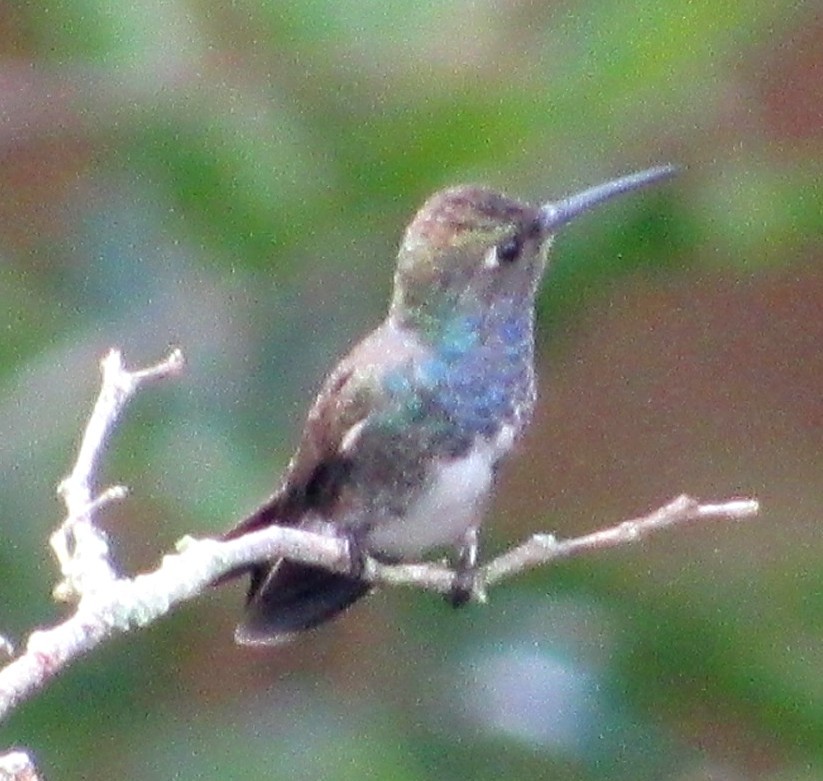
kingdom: Animalia
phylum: Chordata
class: Aves
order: Apodiformes
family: Trochilidae
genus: Chionomesa
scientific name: Chionomesa lactea
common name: Sapphire-spangled emerald
